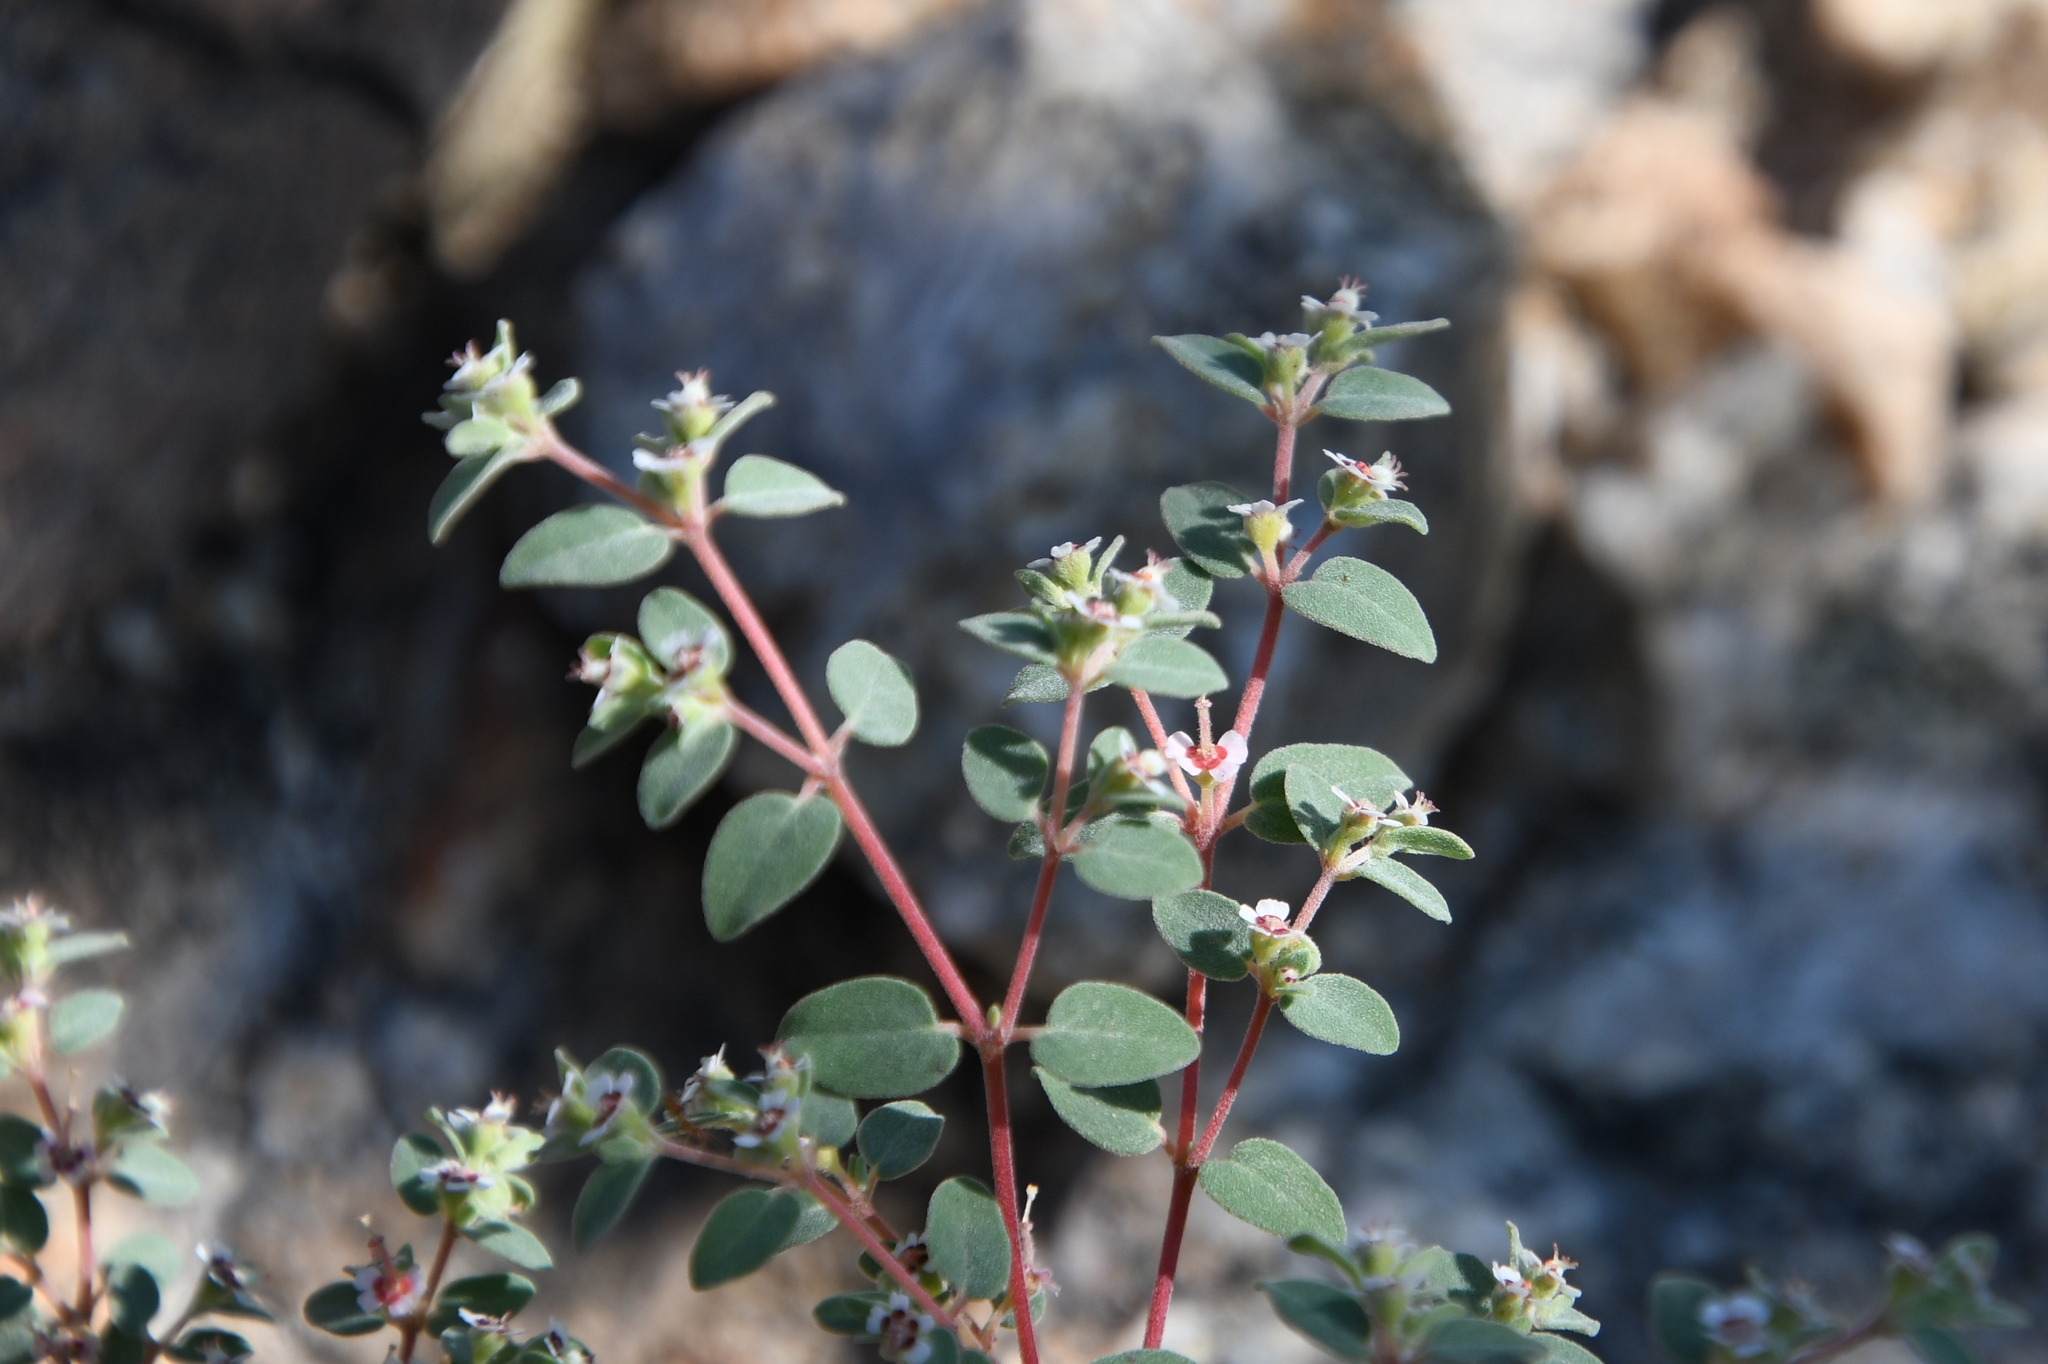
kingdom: Plantae
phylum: Tracheophyta
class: Magnoliopsida
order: Malpighiales
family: Euphorbiaceae
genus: Euphorbia
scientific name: Euphorbia melanadenia
